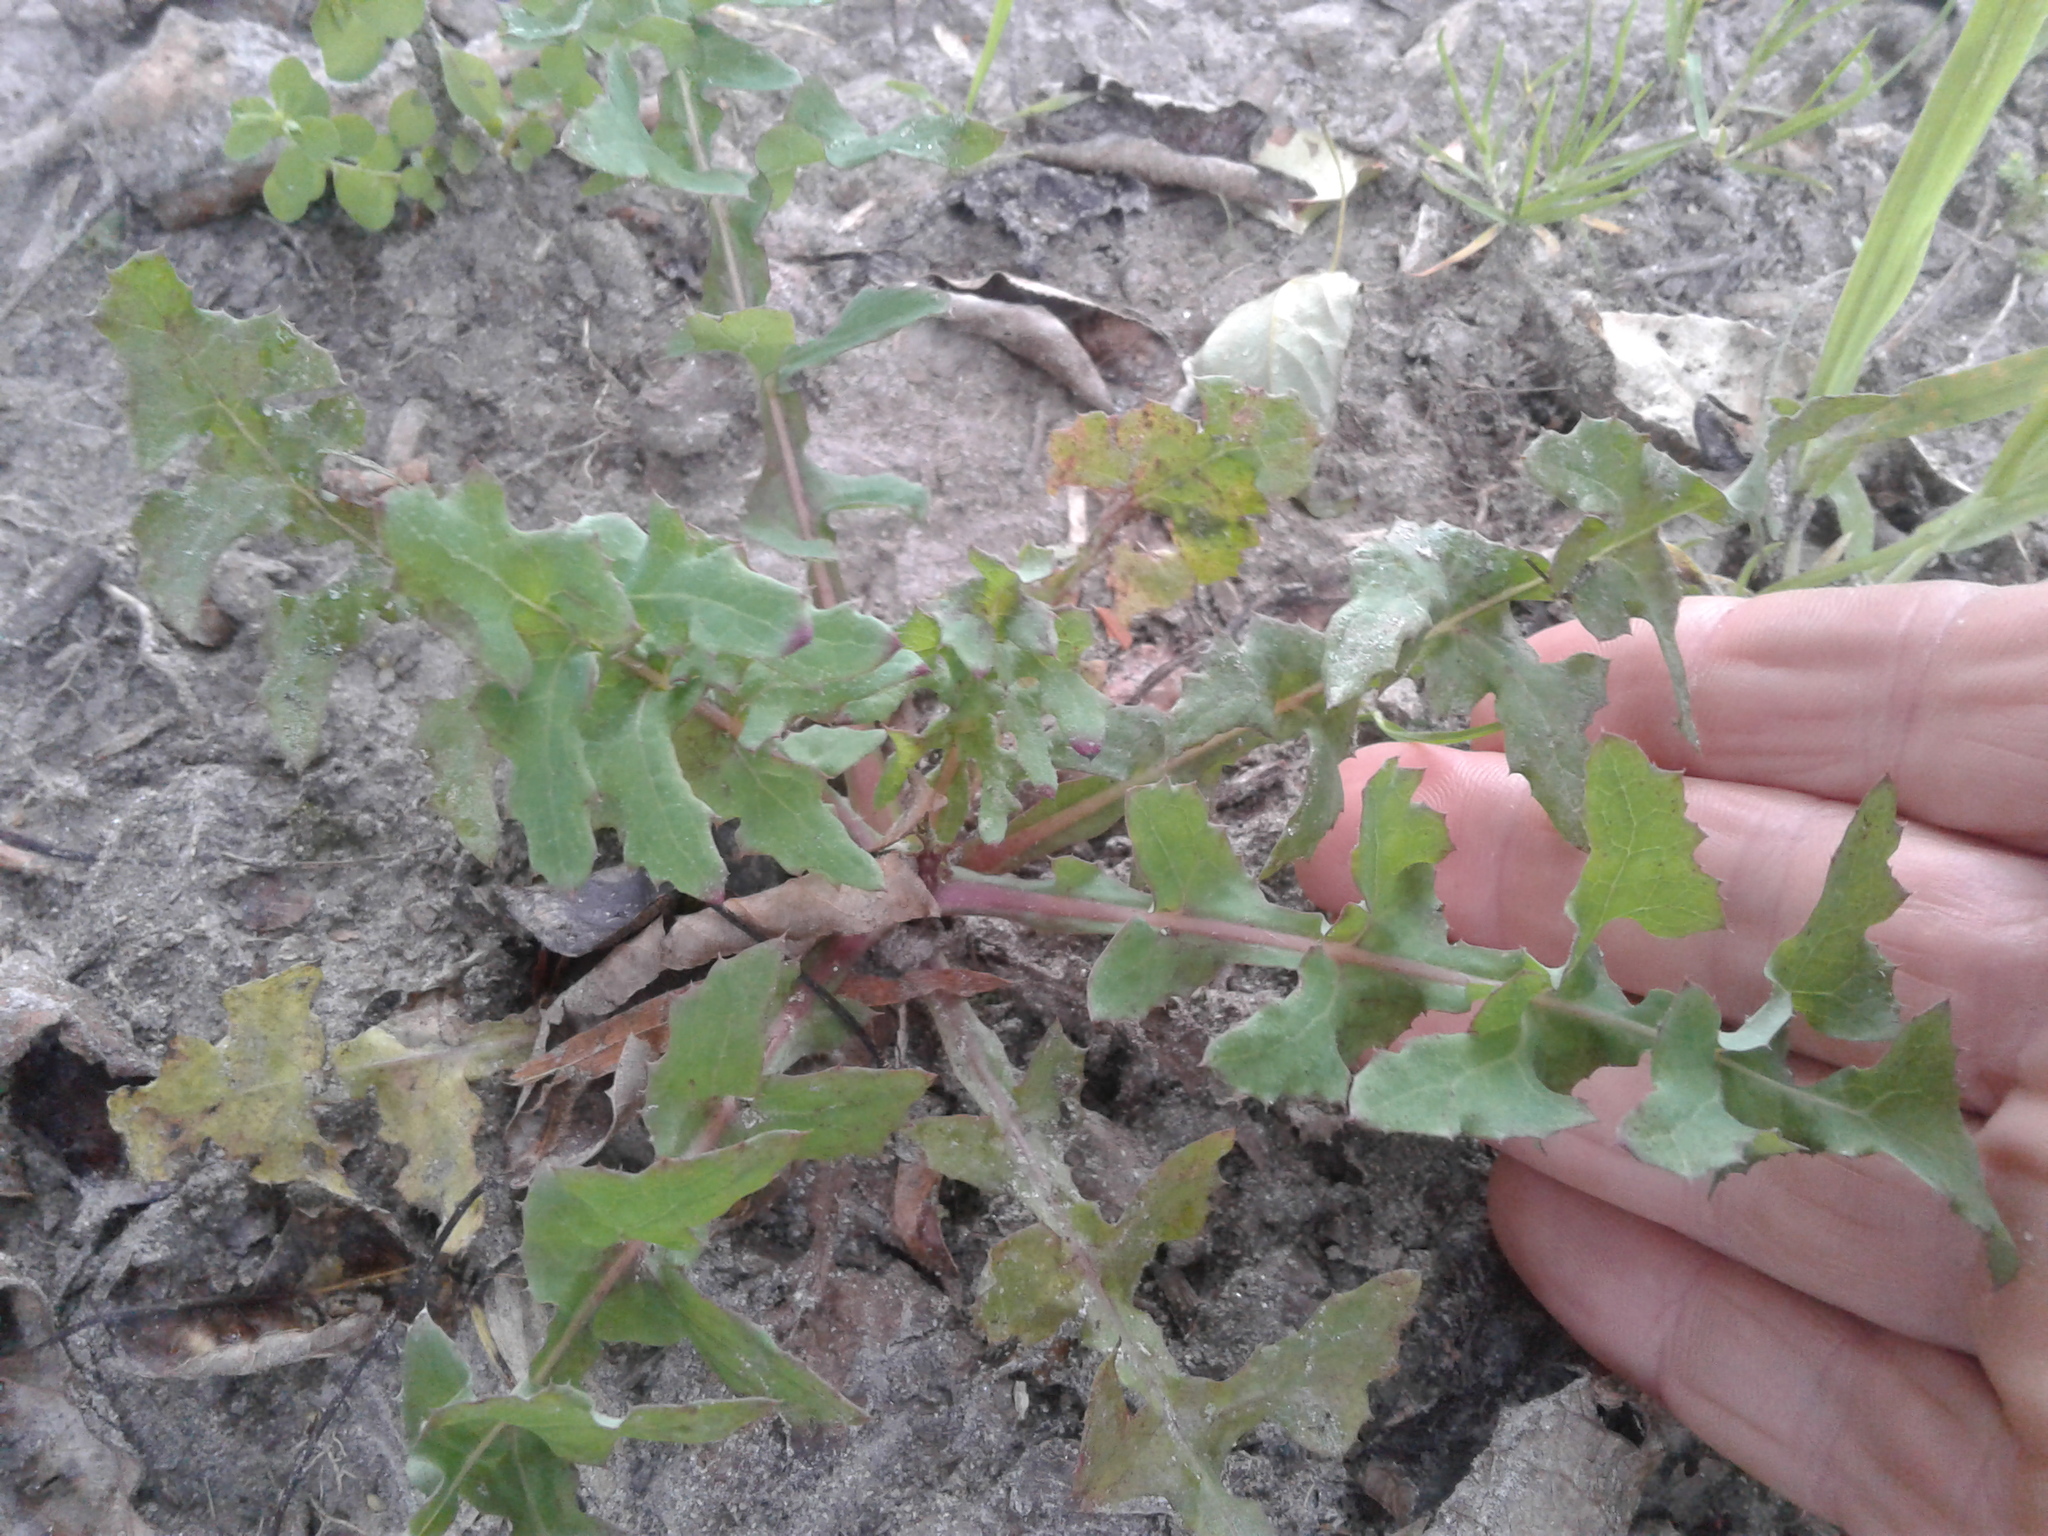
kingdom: Plantae
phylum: Tracheophyta
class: Magnoliopsida
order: Asterales
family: Asteraceae
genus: Sonchus
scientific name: Sonchus oleraceus
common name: Common sowthistle
